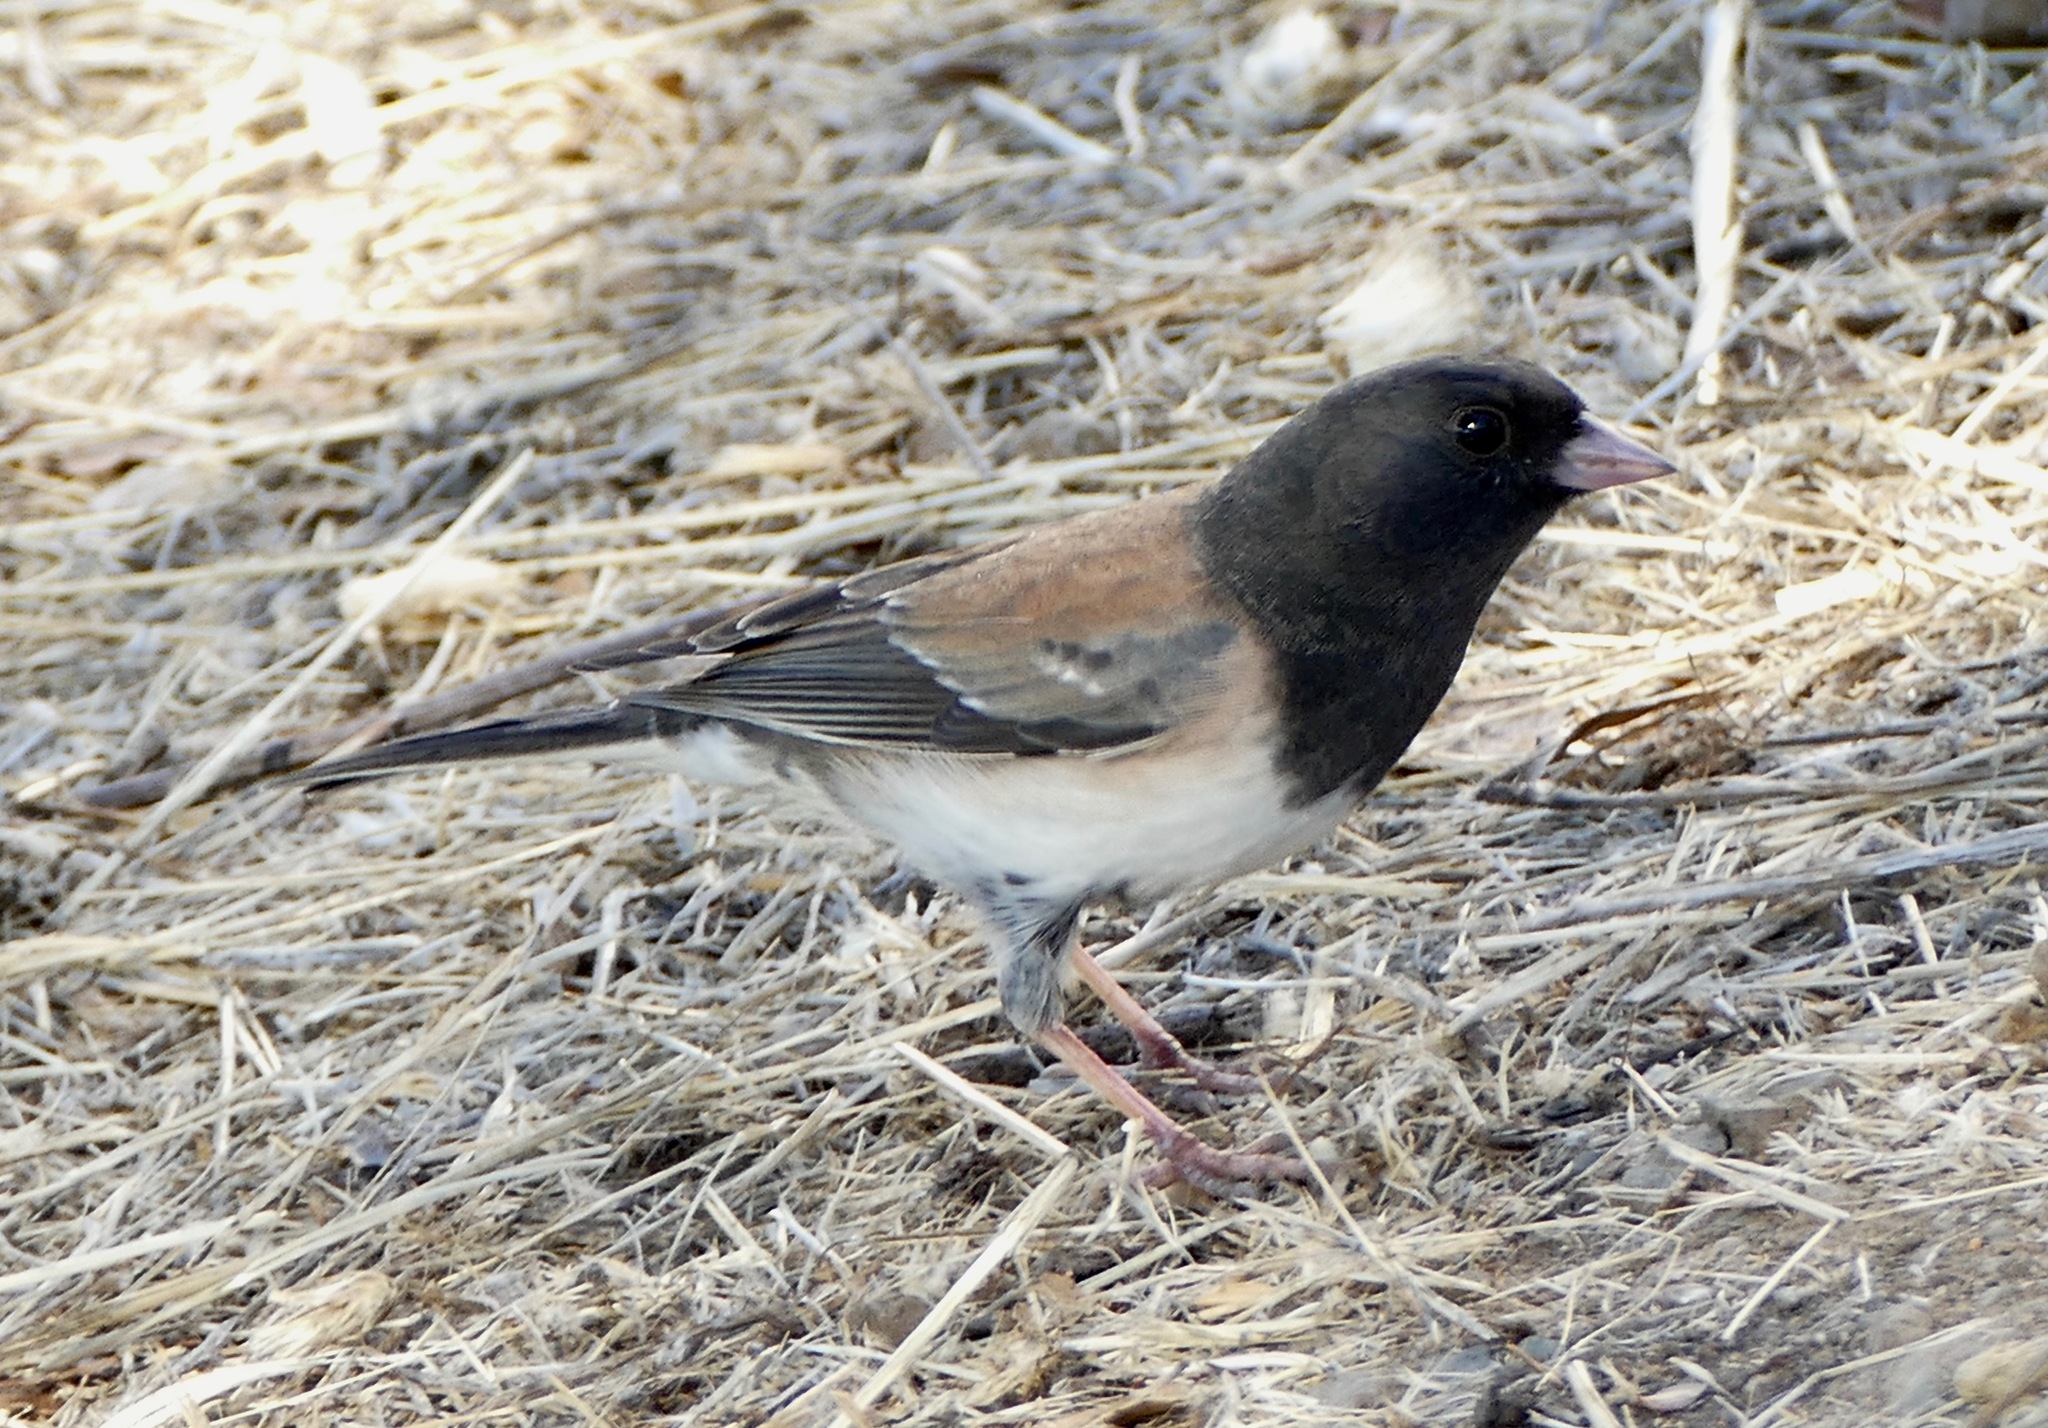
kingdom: Animalia
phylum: Chordata
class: Aves
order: Passeriformes
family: Passerellidae
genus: Junco
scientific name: Junco hyemalis
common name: Dark-eyed junco
